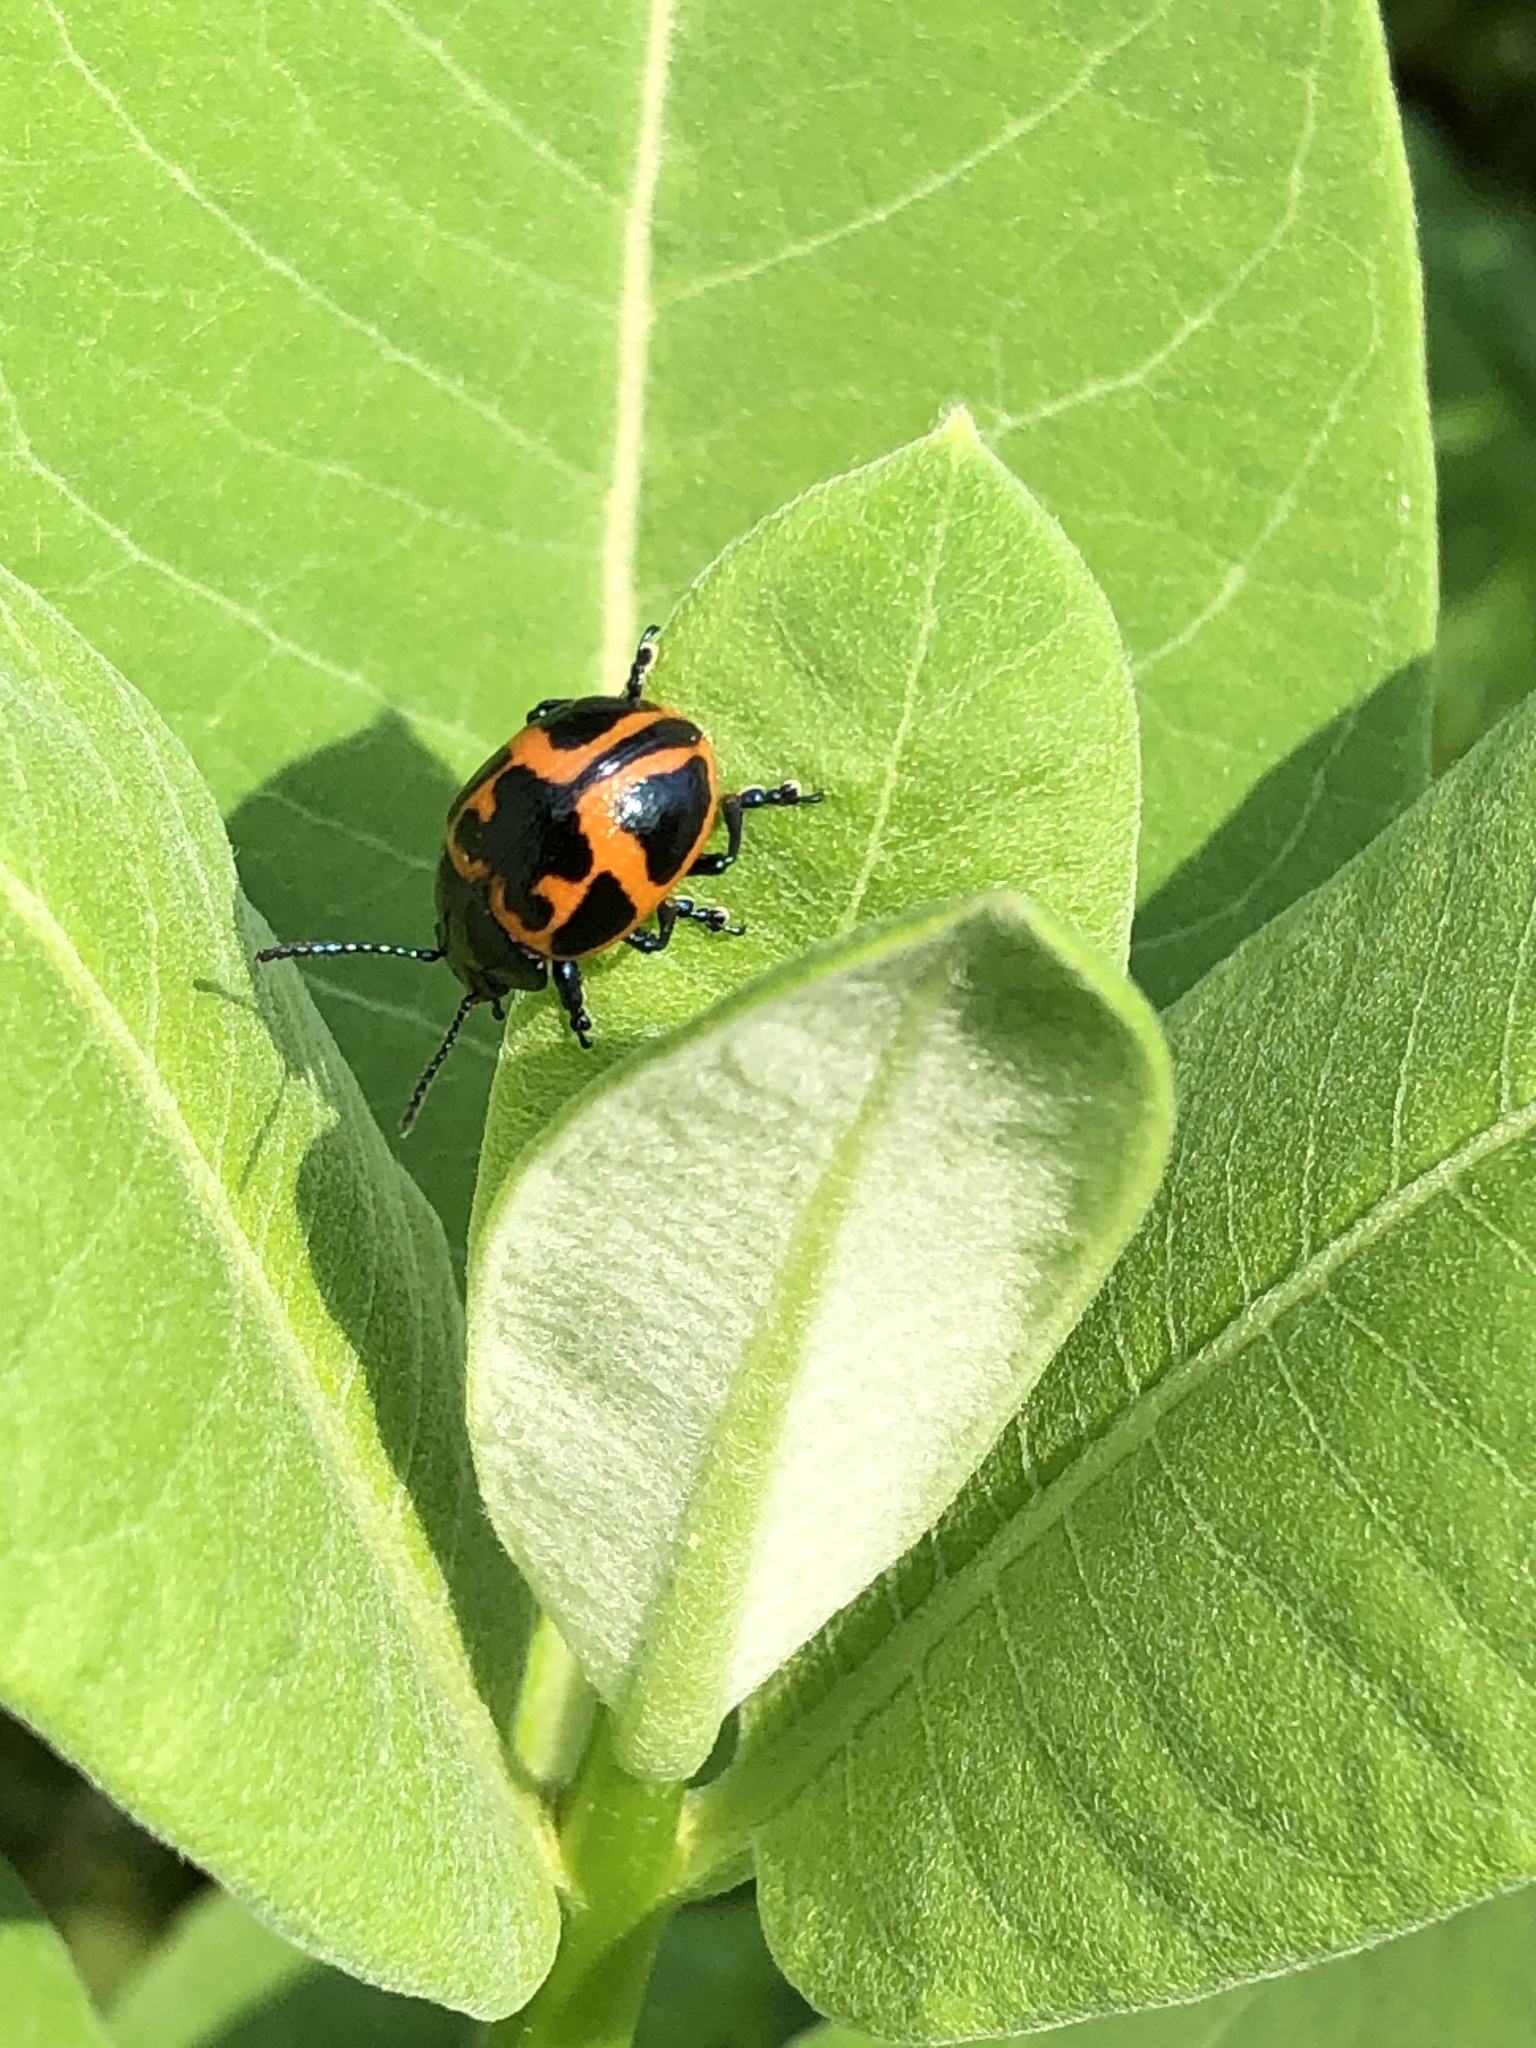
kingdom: Animalia
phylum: Arthropoda
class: Insecta
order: Coleoptera
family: Chrysomelidae
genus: Labidomera
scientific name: Labidomera clivicollis
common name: Swamp milkweed leaf beetle
